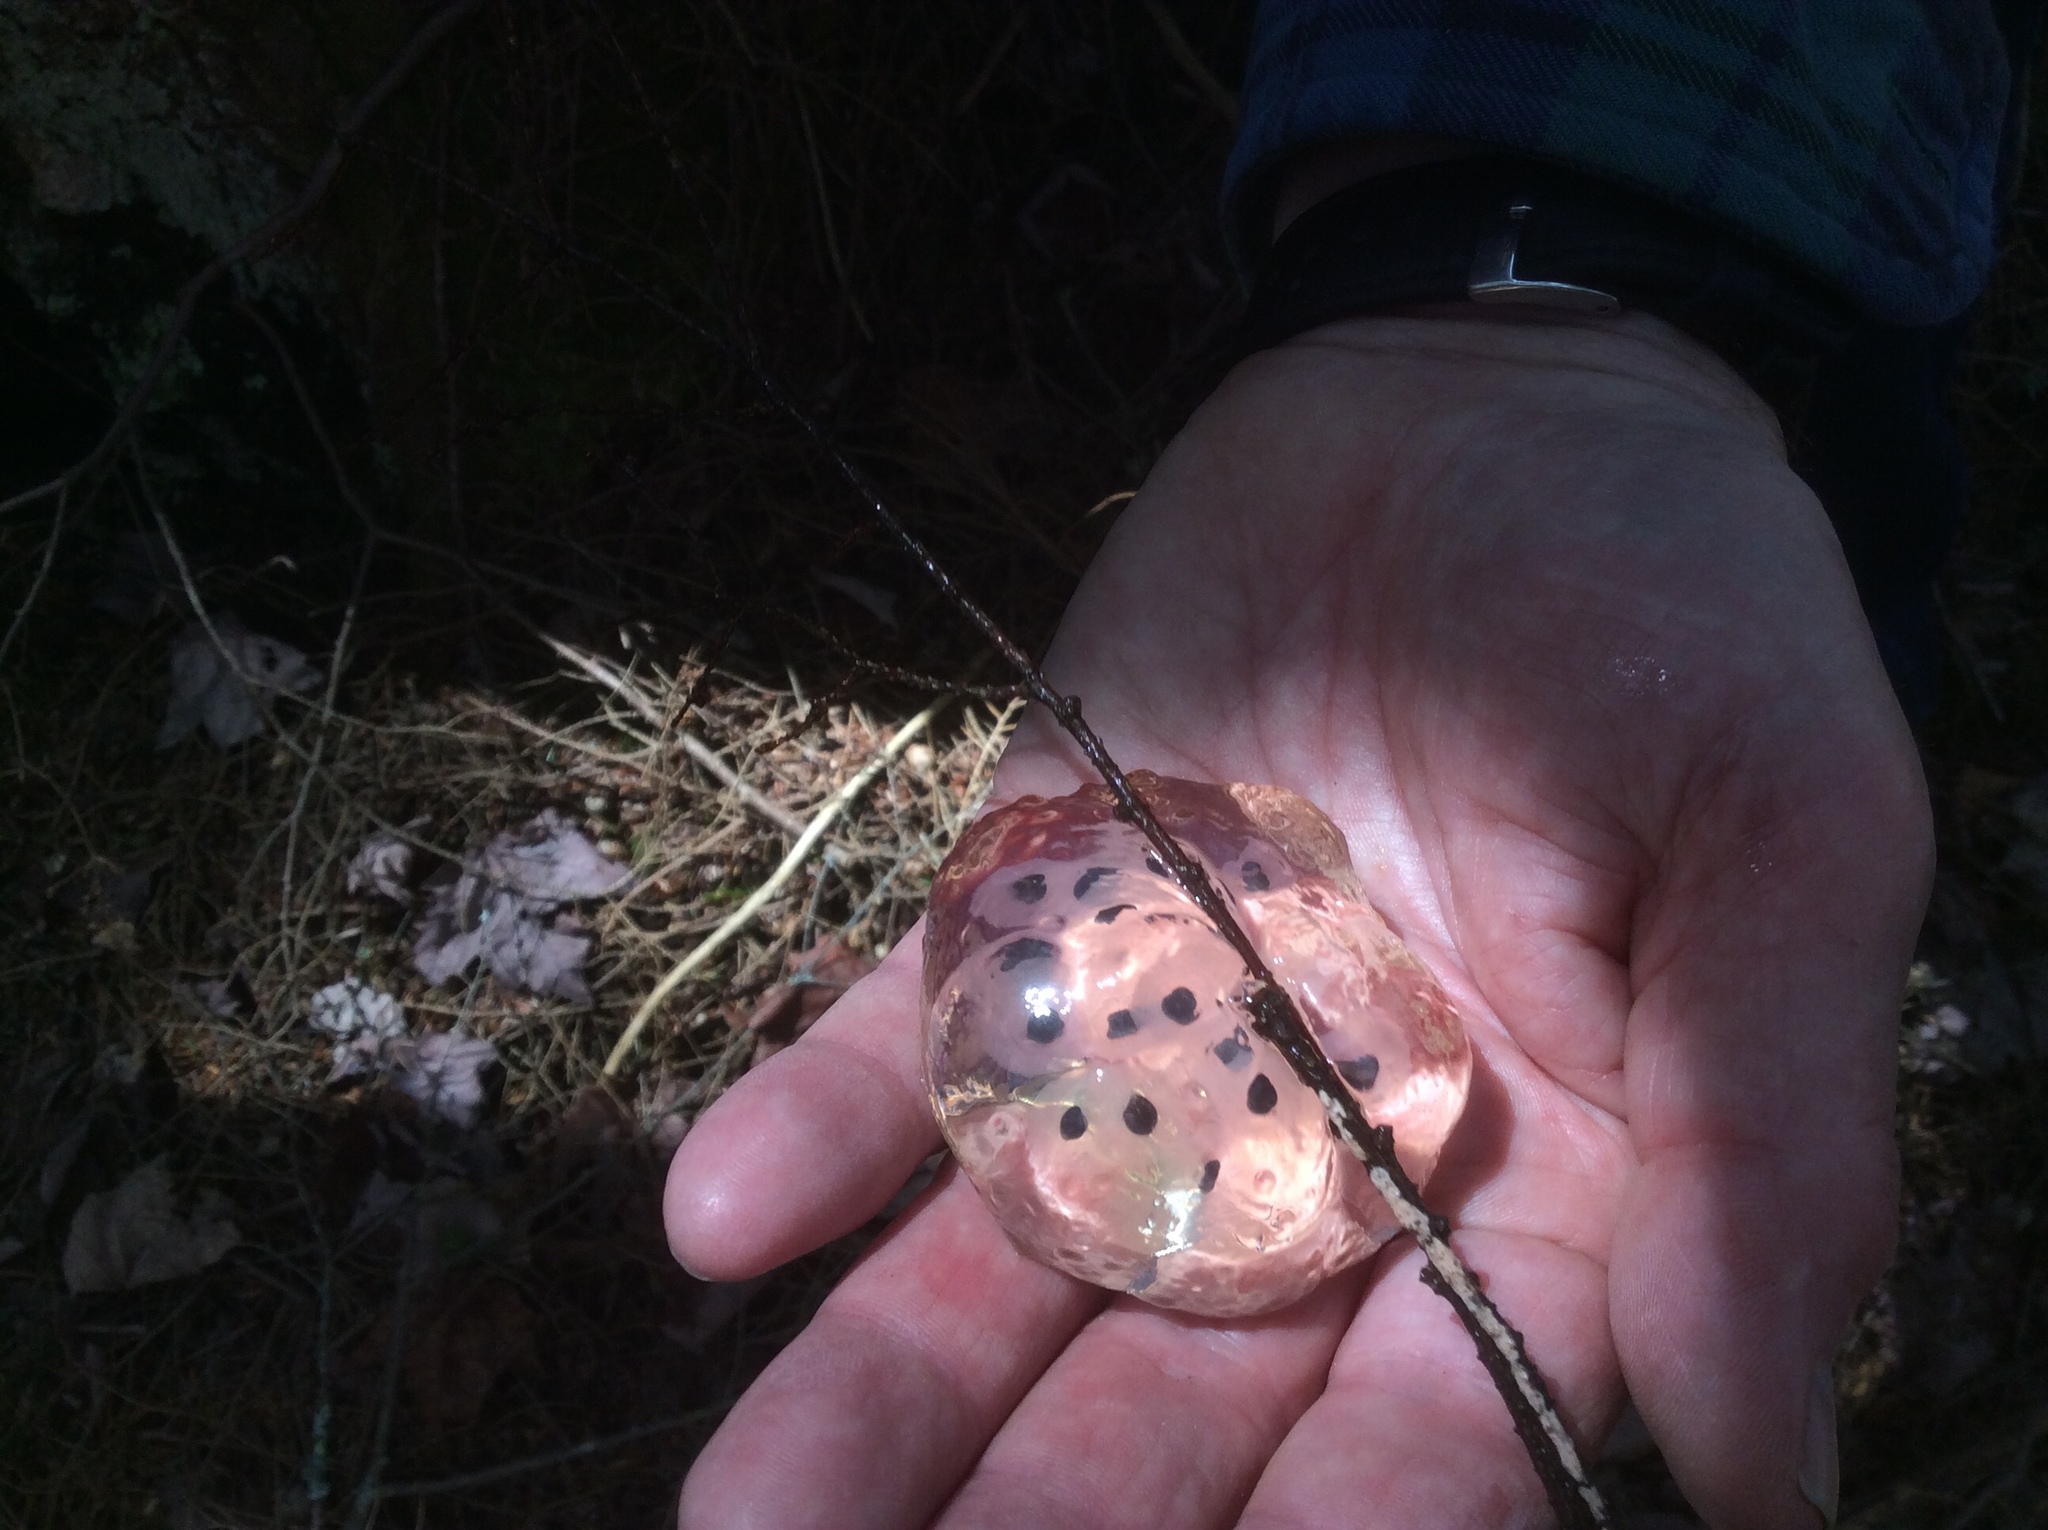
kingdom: Animalia
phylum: Chordata
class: Amphibia
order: Caudata
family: Ambystomatidae
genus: Ambystoma
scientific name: Ambystoma maculatum
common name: Spotted salamander
